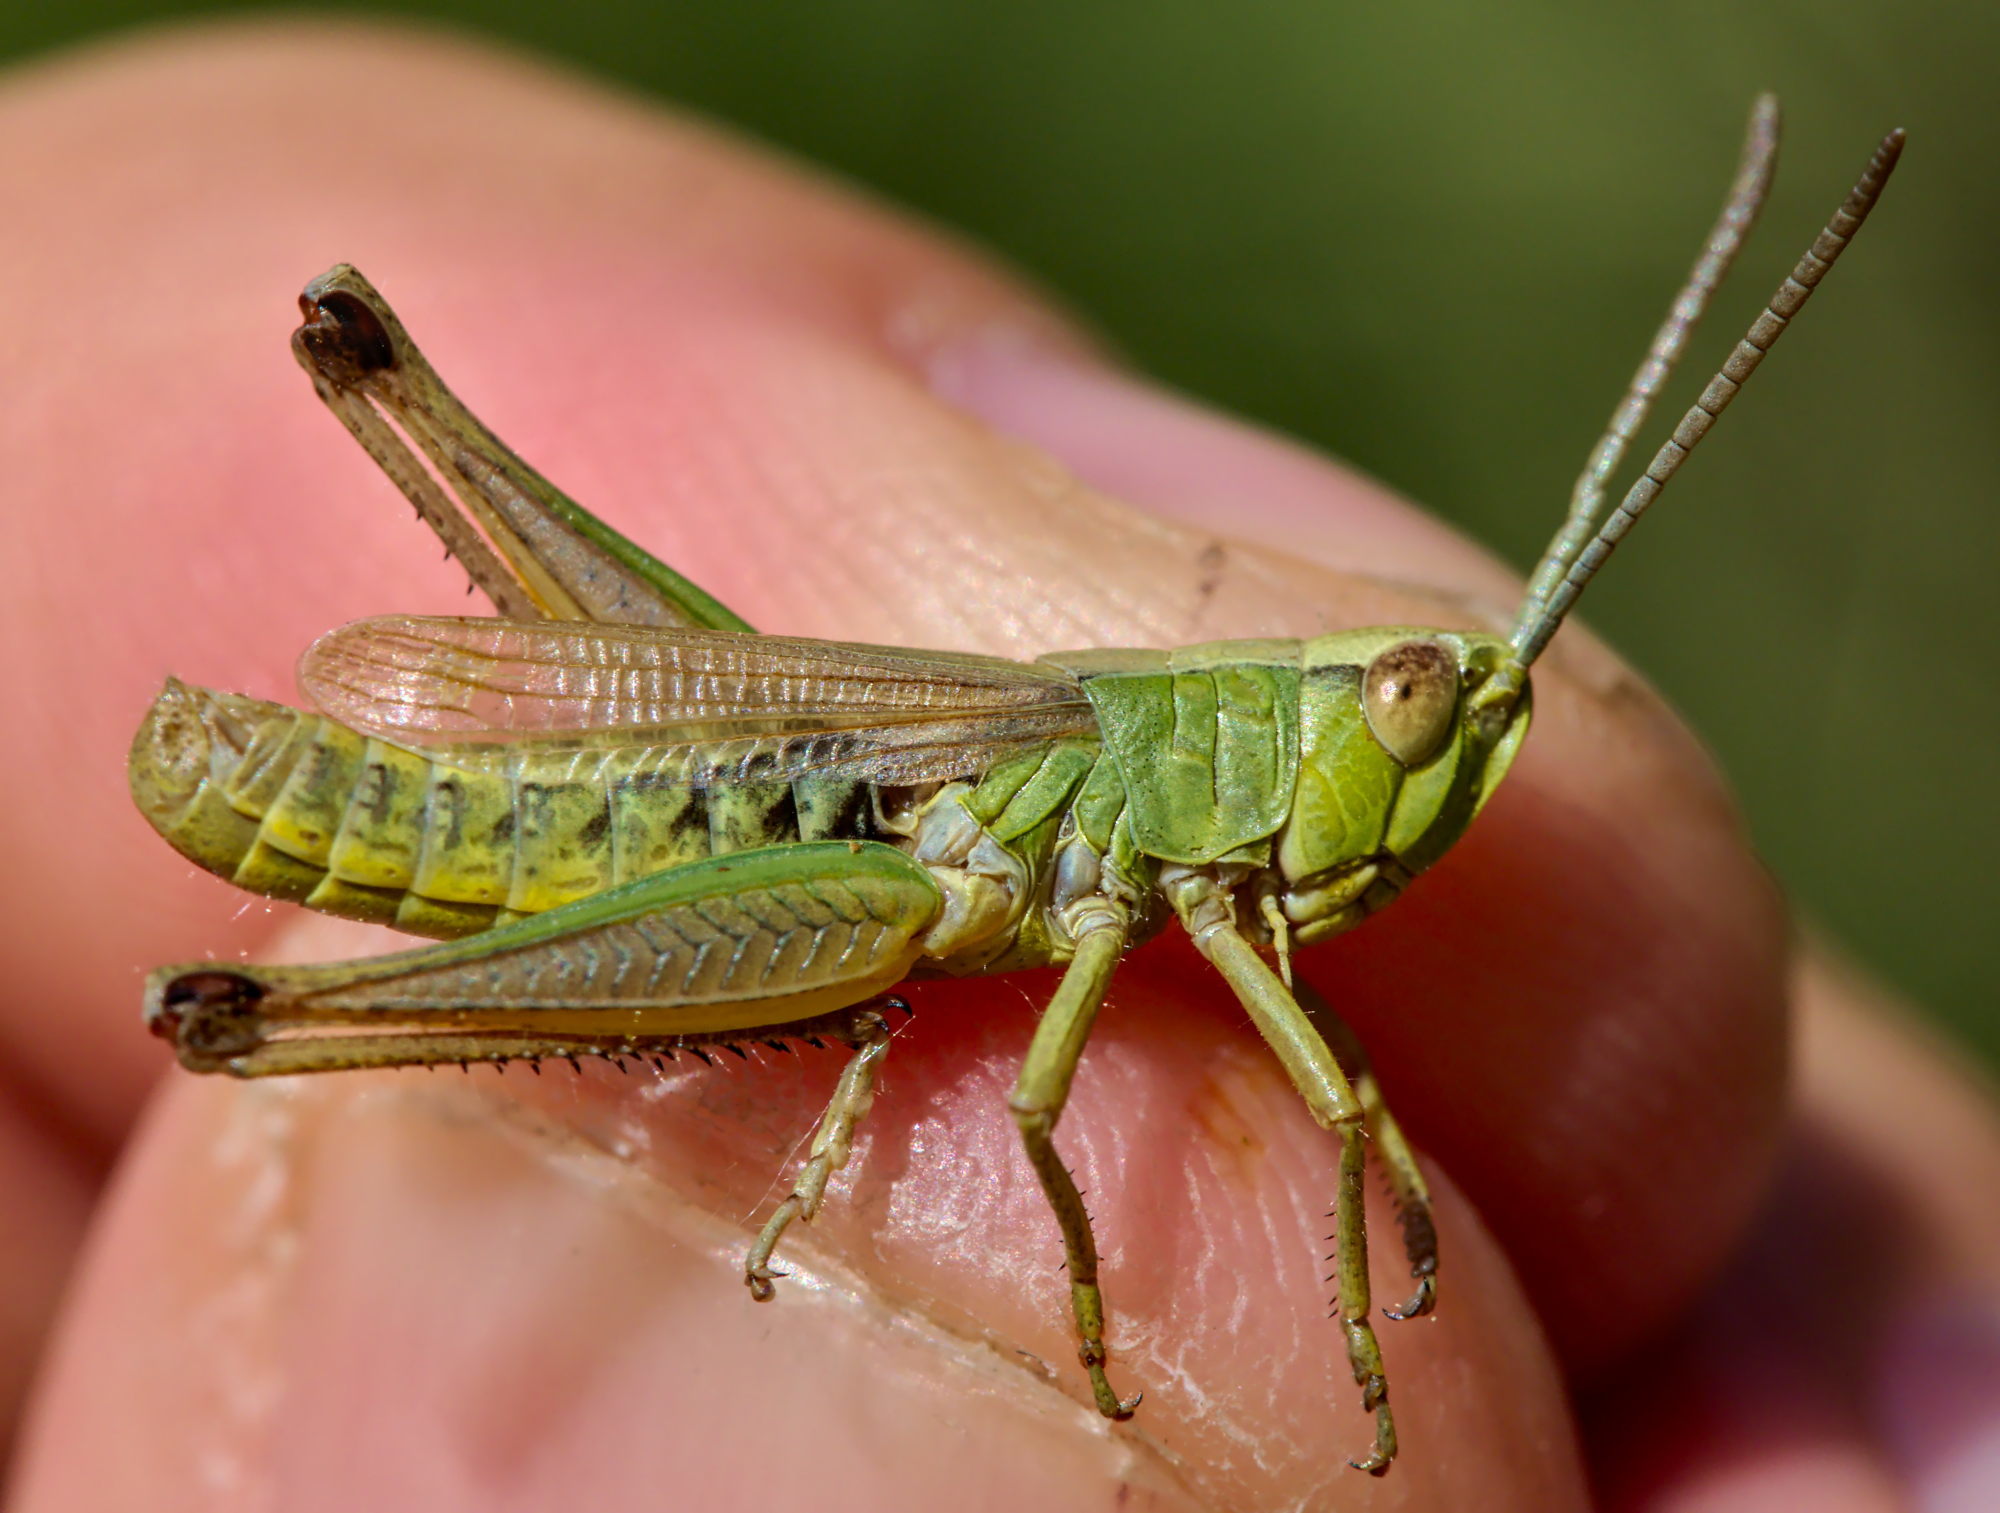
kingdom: Animalia
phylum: Arthropoda
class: Insecta
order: Orthoptera
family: Acrididae
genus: Pseudochorthippus
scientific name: Pseudochorthippus parallelus
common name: Meadow grasshopper
